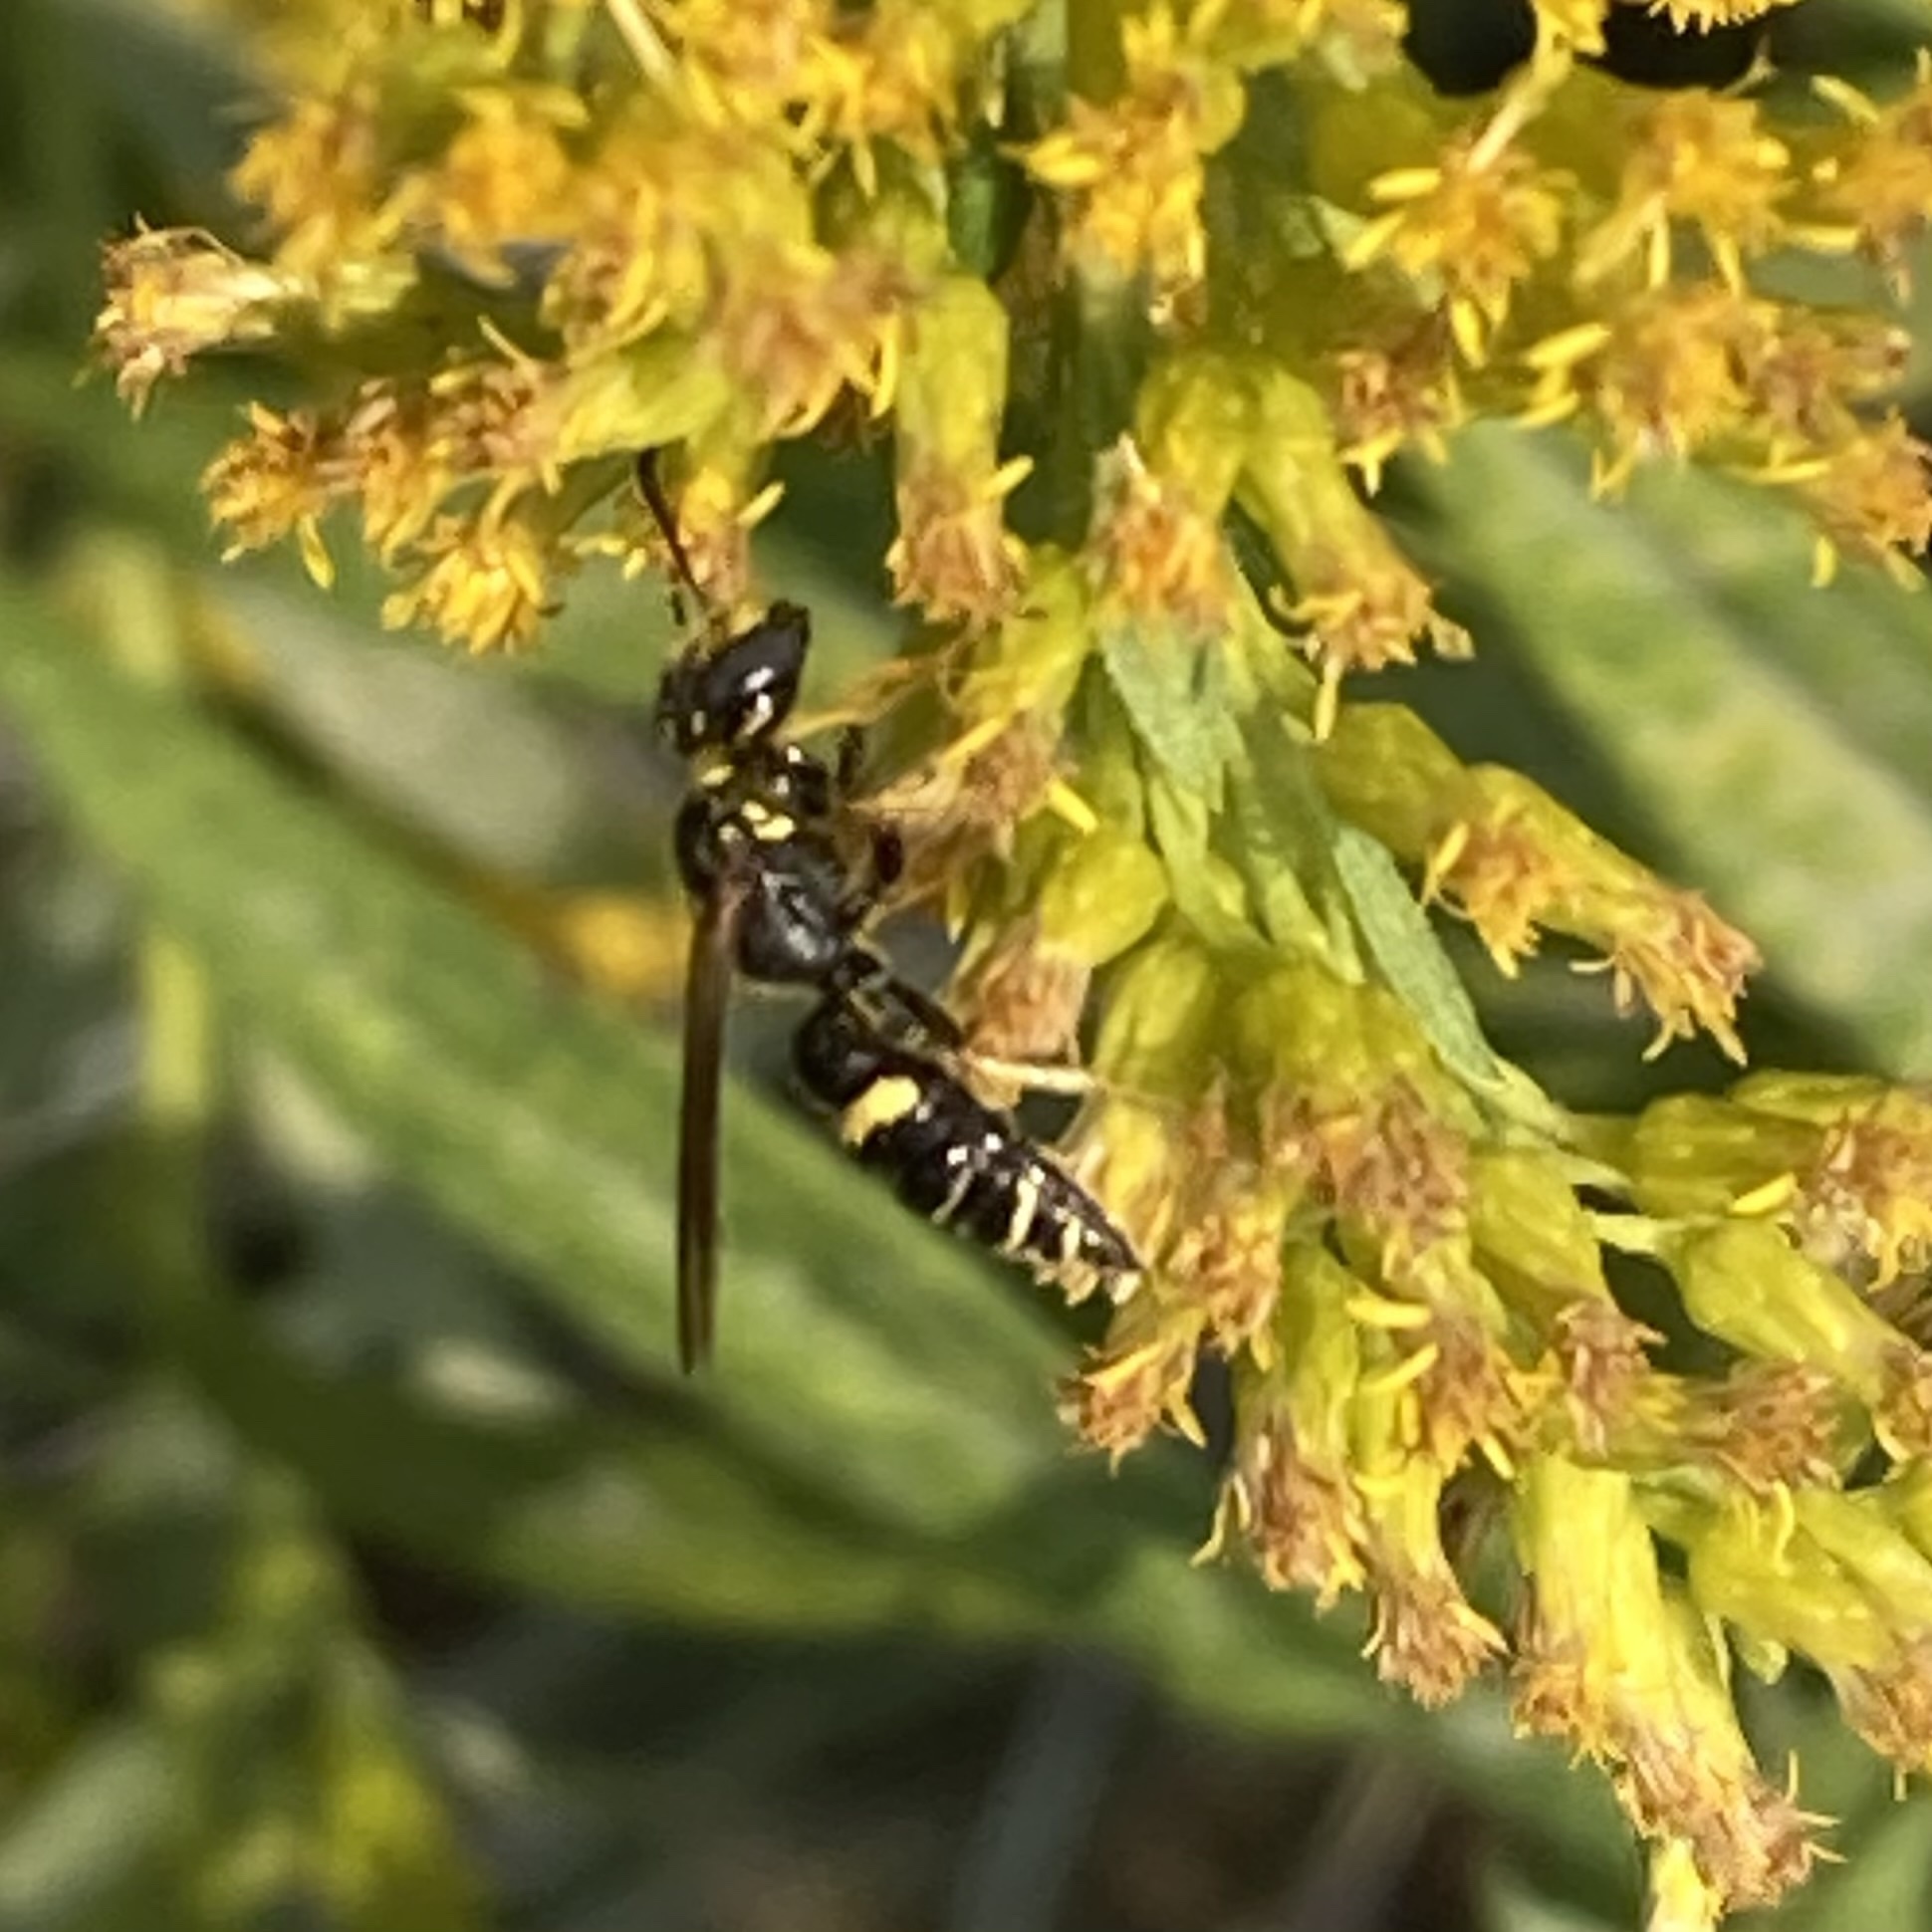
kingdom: Animalia
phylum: Arthropoda
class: Insecta
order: Hymenoptera
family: Crabronidae
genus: Philanthus
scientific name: Philanthus gibbosus
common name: Humped beewolf
